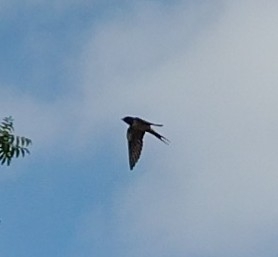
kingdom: Animalia
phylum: Chordata
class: Aves
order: Passeriformes
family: Hirundinidae
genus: Hirundo
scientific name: Hirundo rustica
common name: Barn swallow
